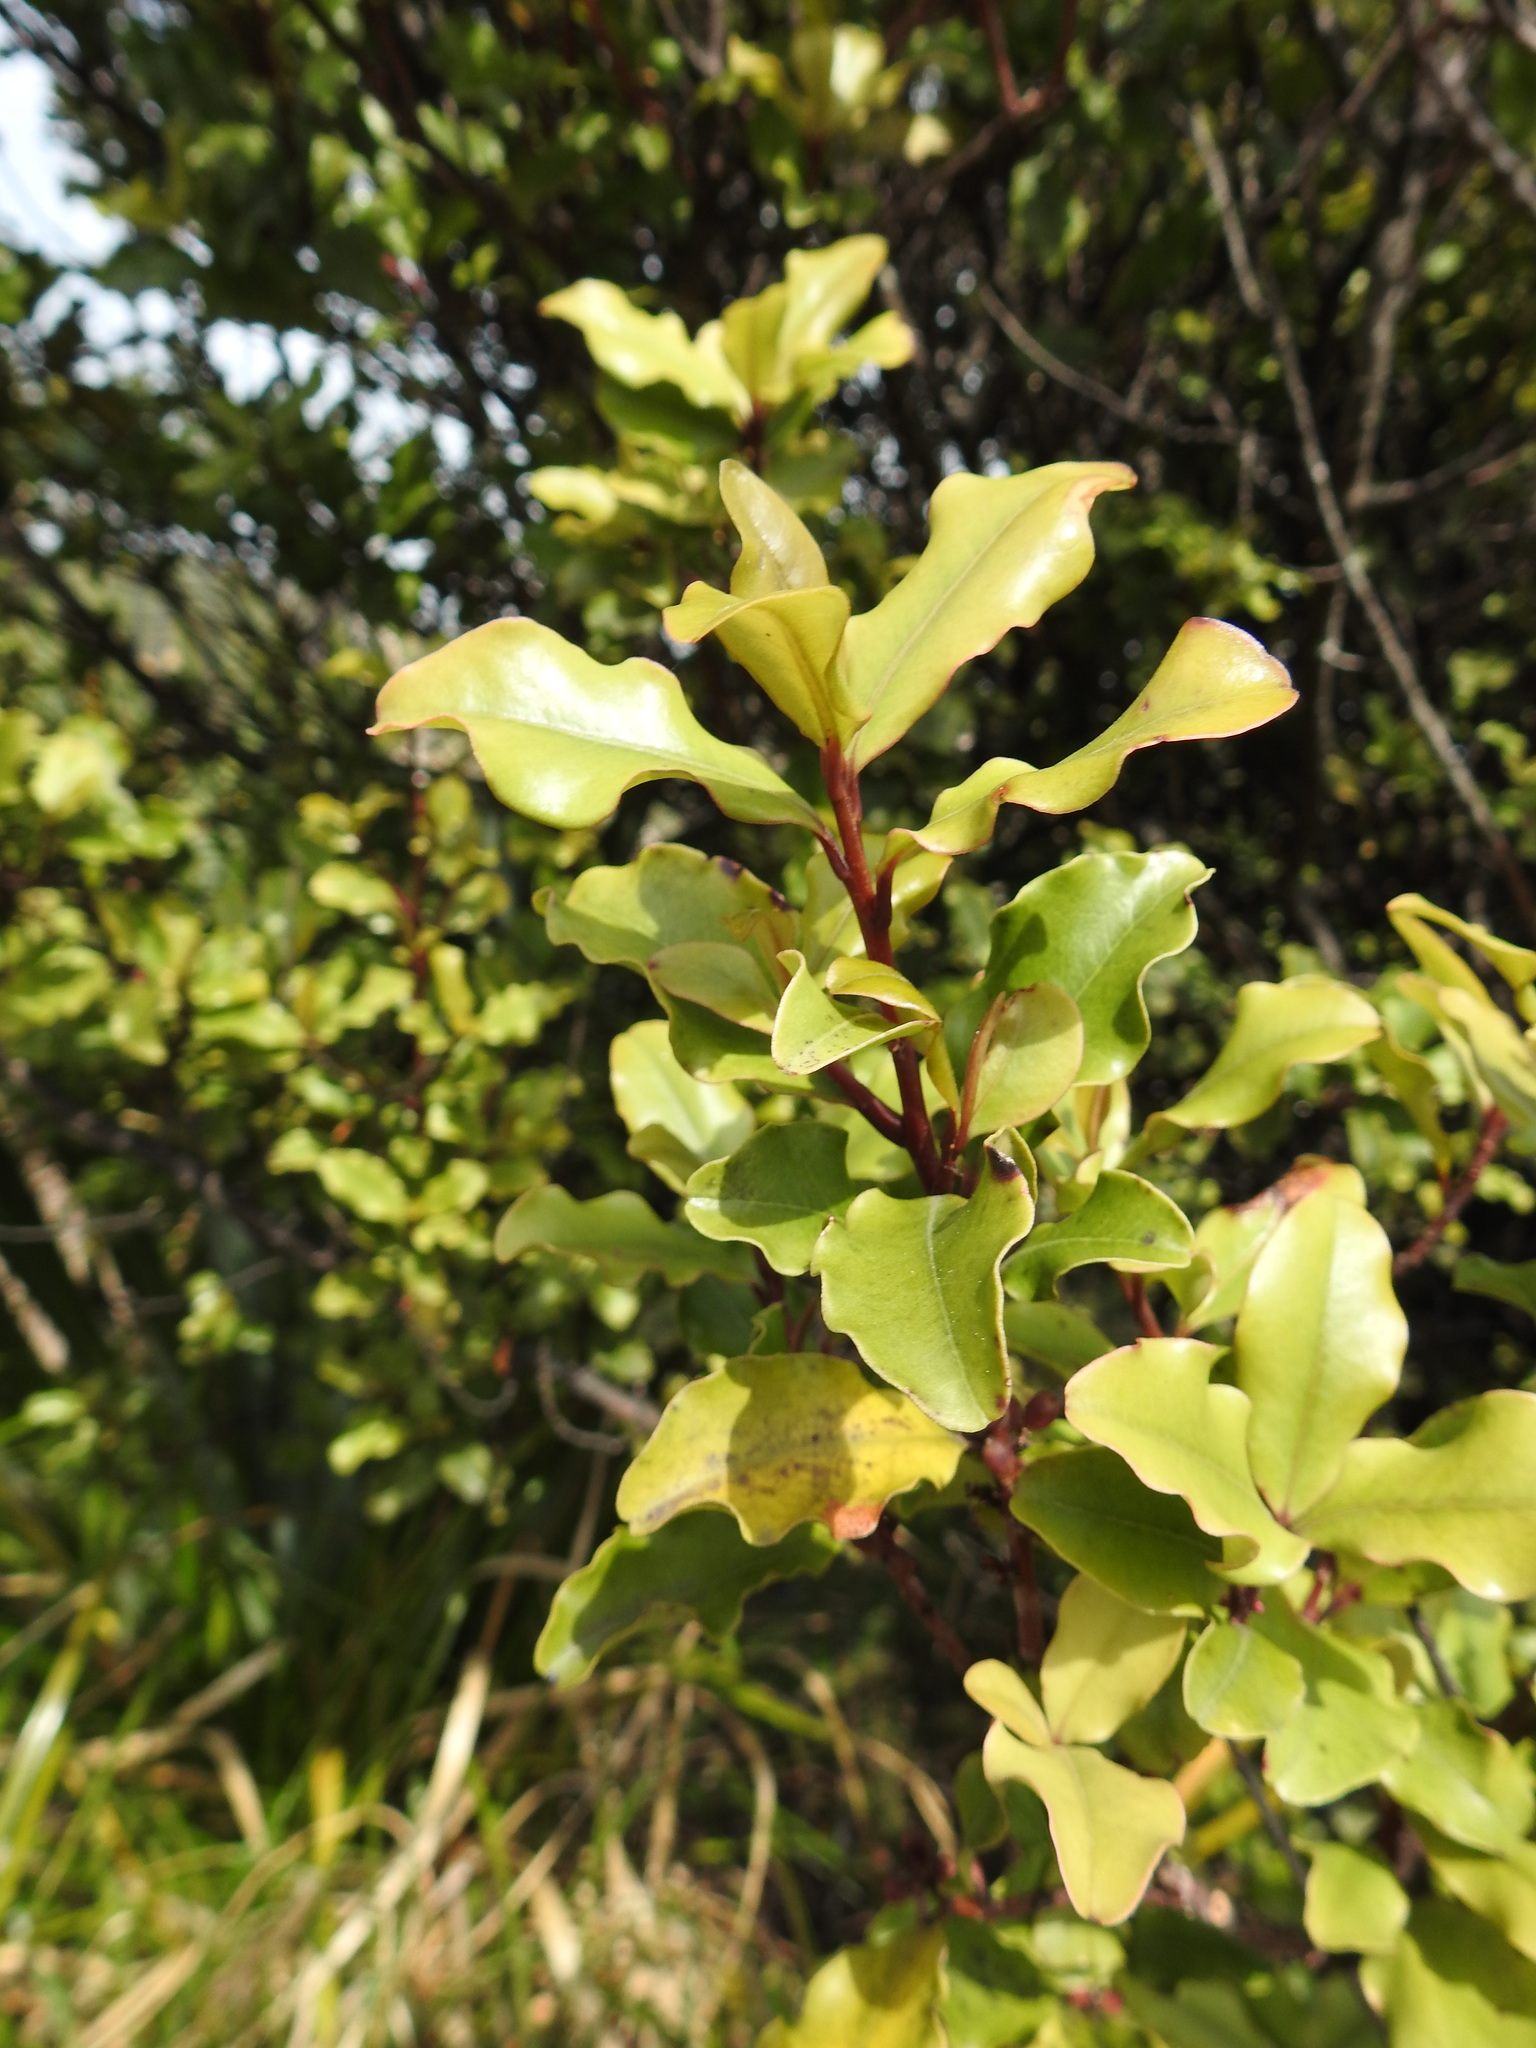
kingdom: Plantae
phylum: Tracheophyta
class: Magnoliopsida
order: Ericales
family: Primulaceae
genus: Myrsine
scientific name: Myrsine australis
